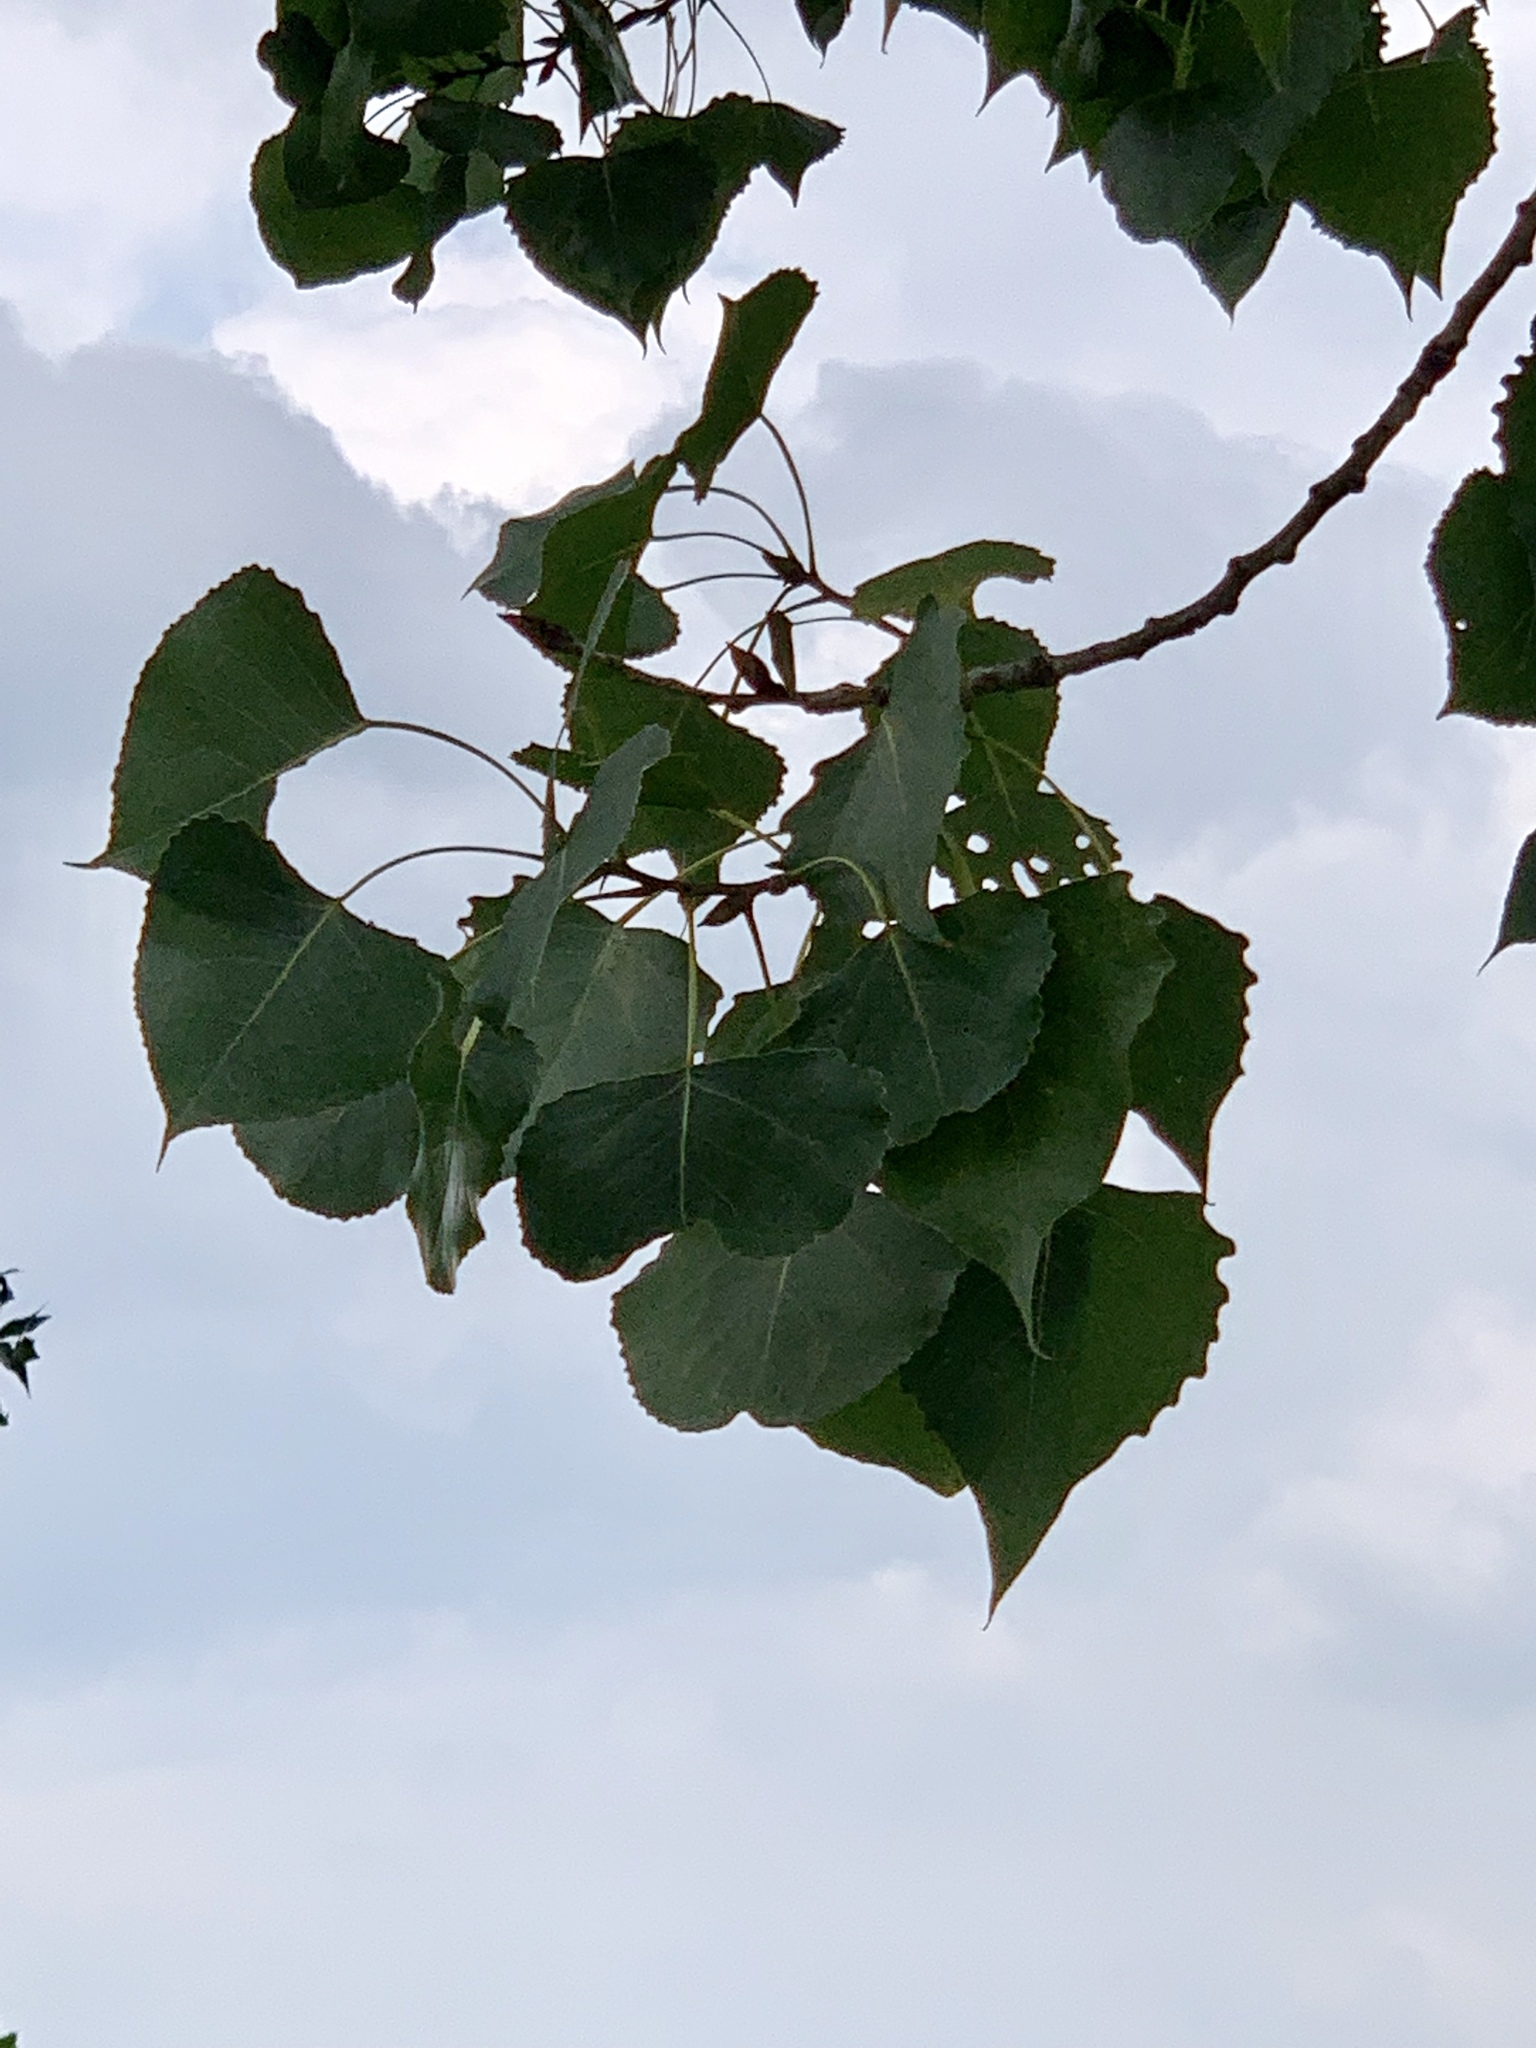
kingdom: Plantae
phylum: Tracheophyta
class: Magnoliopsida
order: Malpighiales
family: Salicaceae
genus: Populus
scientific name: Populus deltoides
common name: Eastern cottonwood
